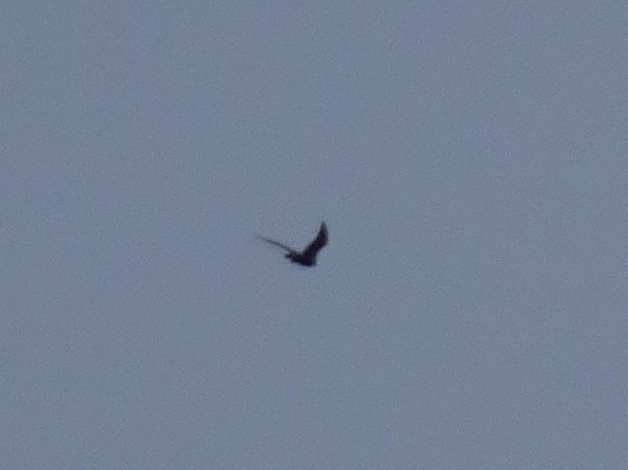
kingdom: Animalia
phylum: Chordata
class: Aves
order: Falconiformes
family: Falconidae
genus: Falco
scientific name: Falco peregrinus
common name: Peregrine falcon
